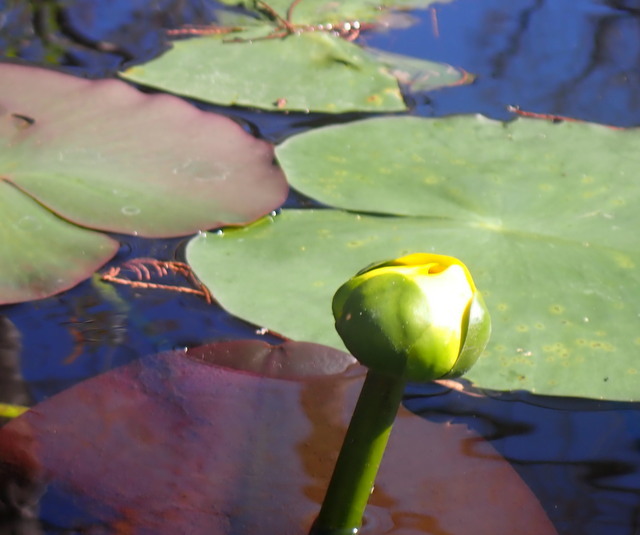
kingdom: Plantae
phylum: Tracheophyta
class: Magnoliopsida
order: Nymphaeales
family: Nymphaeaceae
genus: Nuphar
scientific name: Nuphar advena
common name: Spatter-dock
